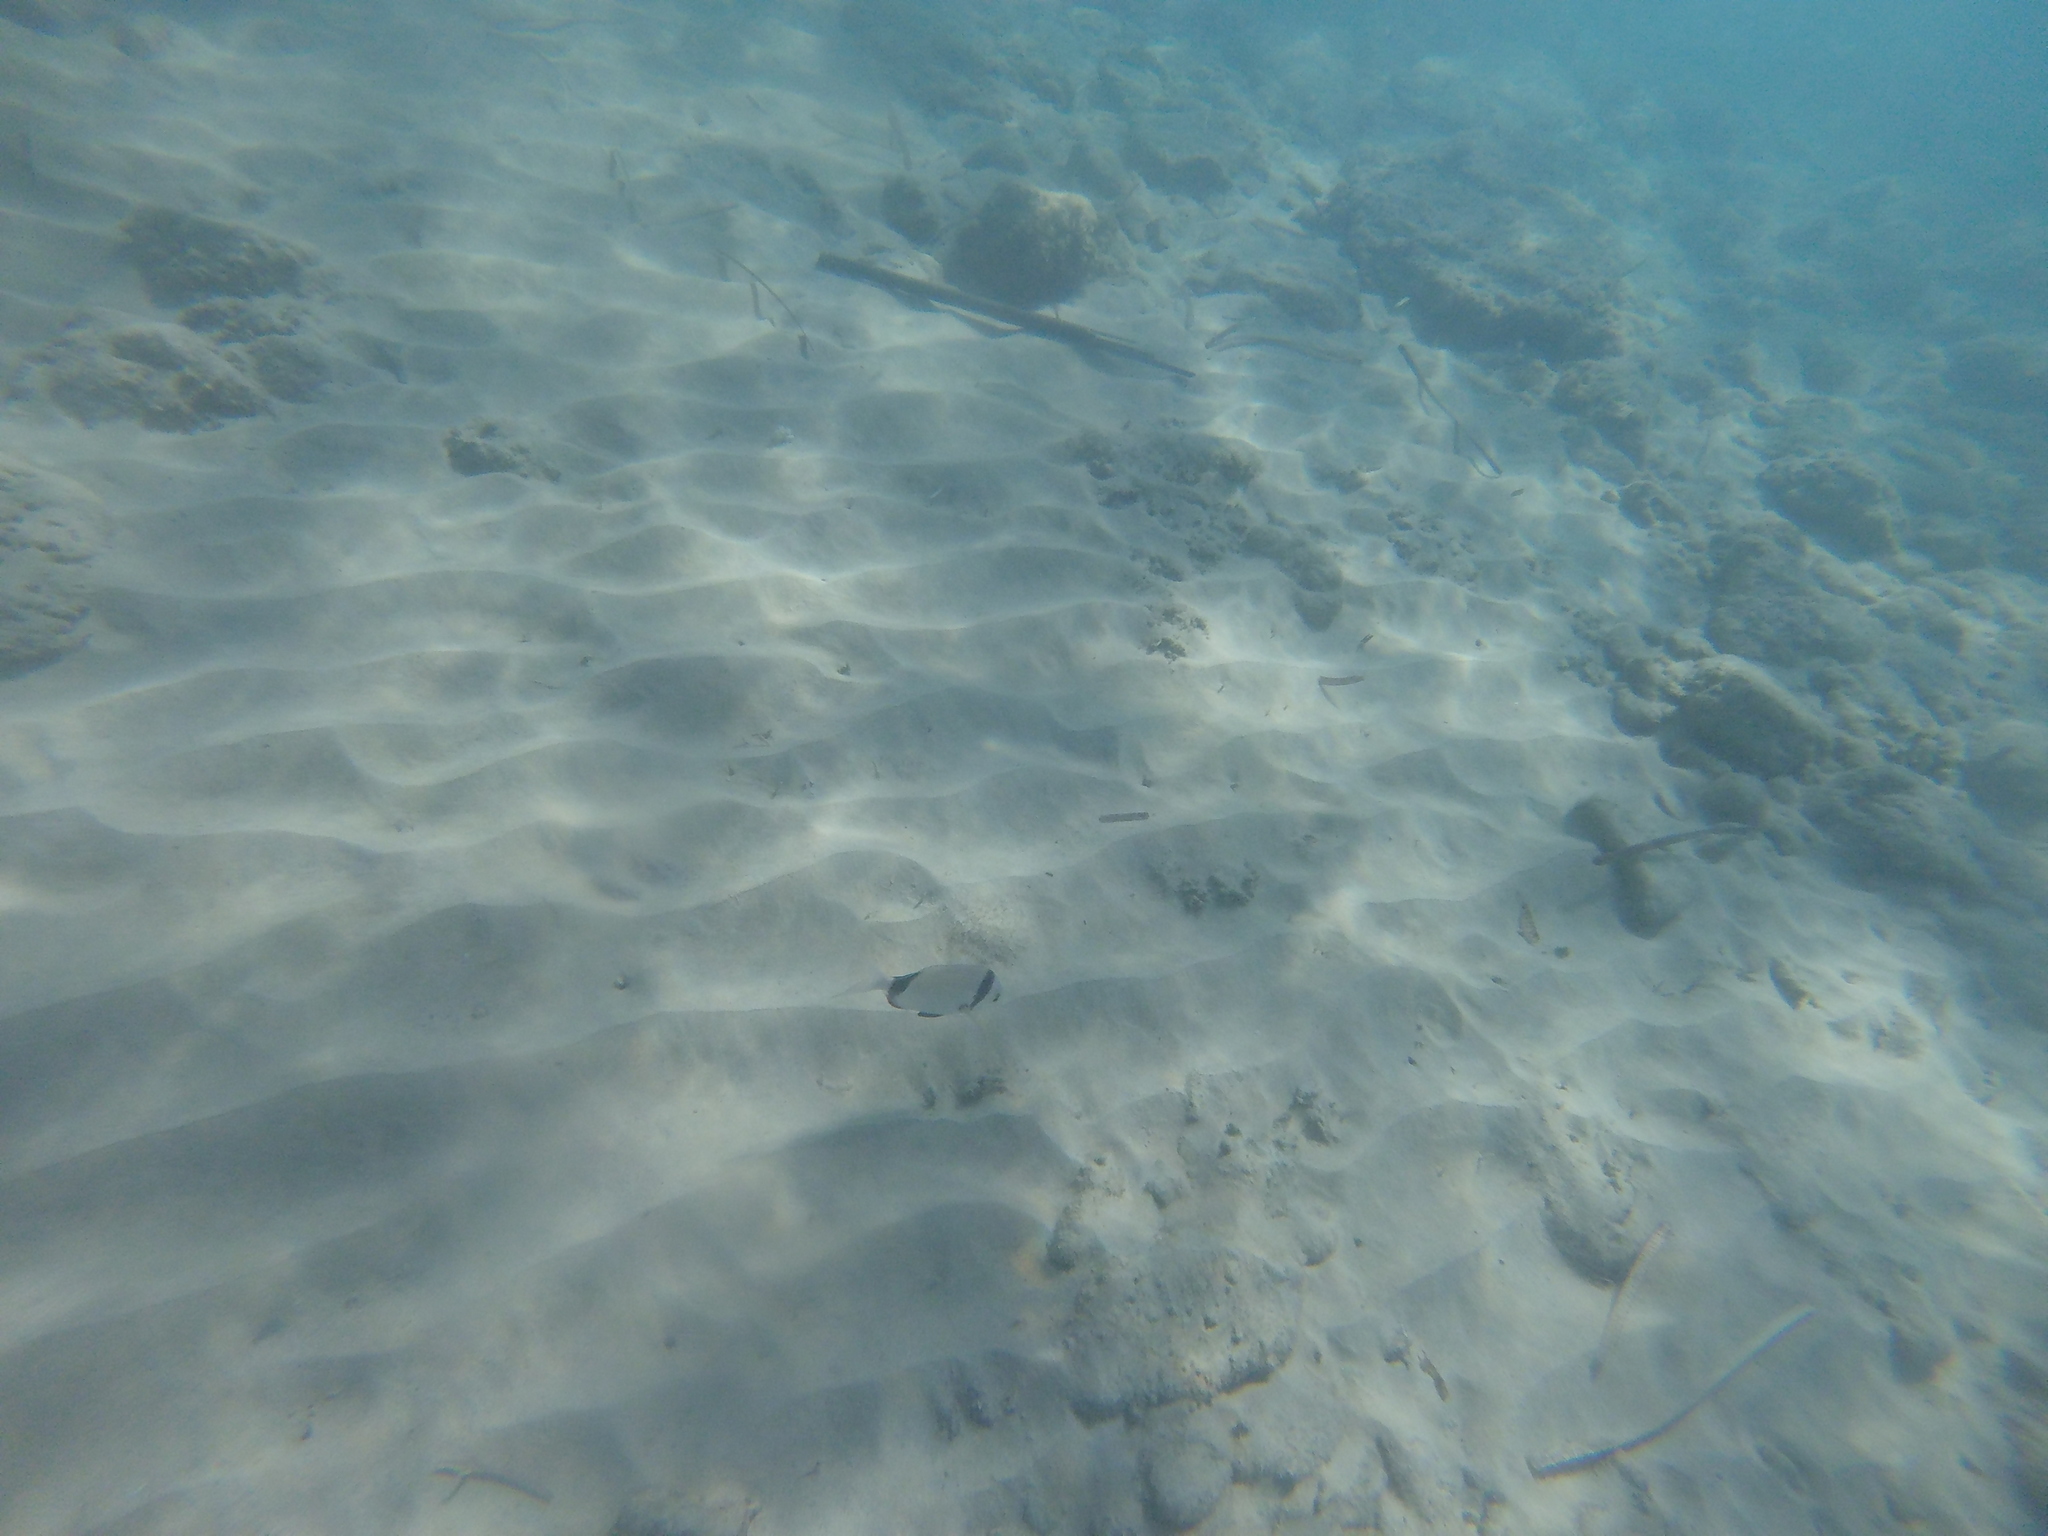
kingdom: Animalia
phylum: Chordata
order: Perciformes
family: Sparidae
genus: Diplodus
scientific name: Diplodus vulgaris
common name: Common two-banded seabream
